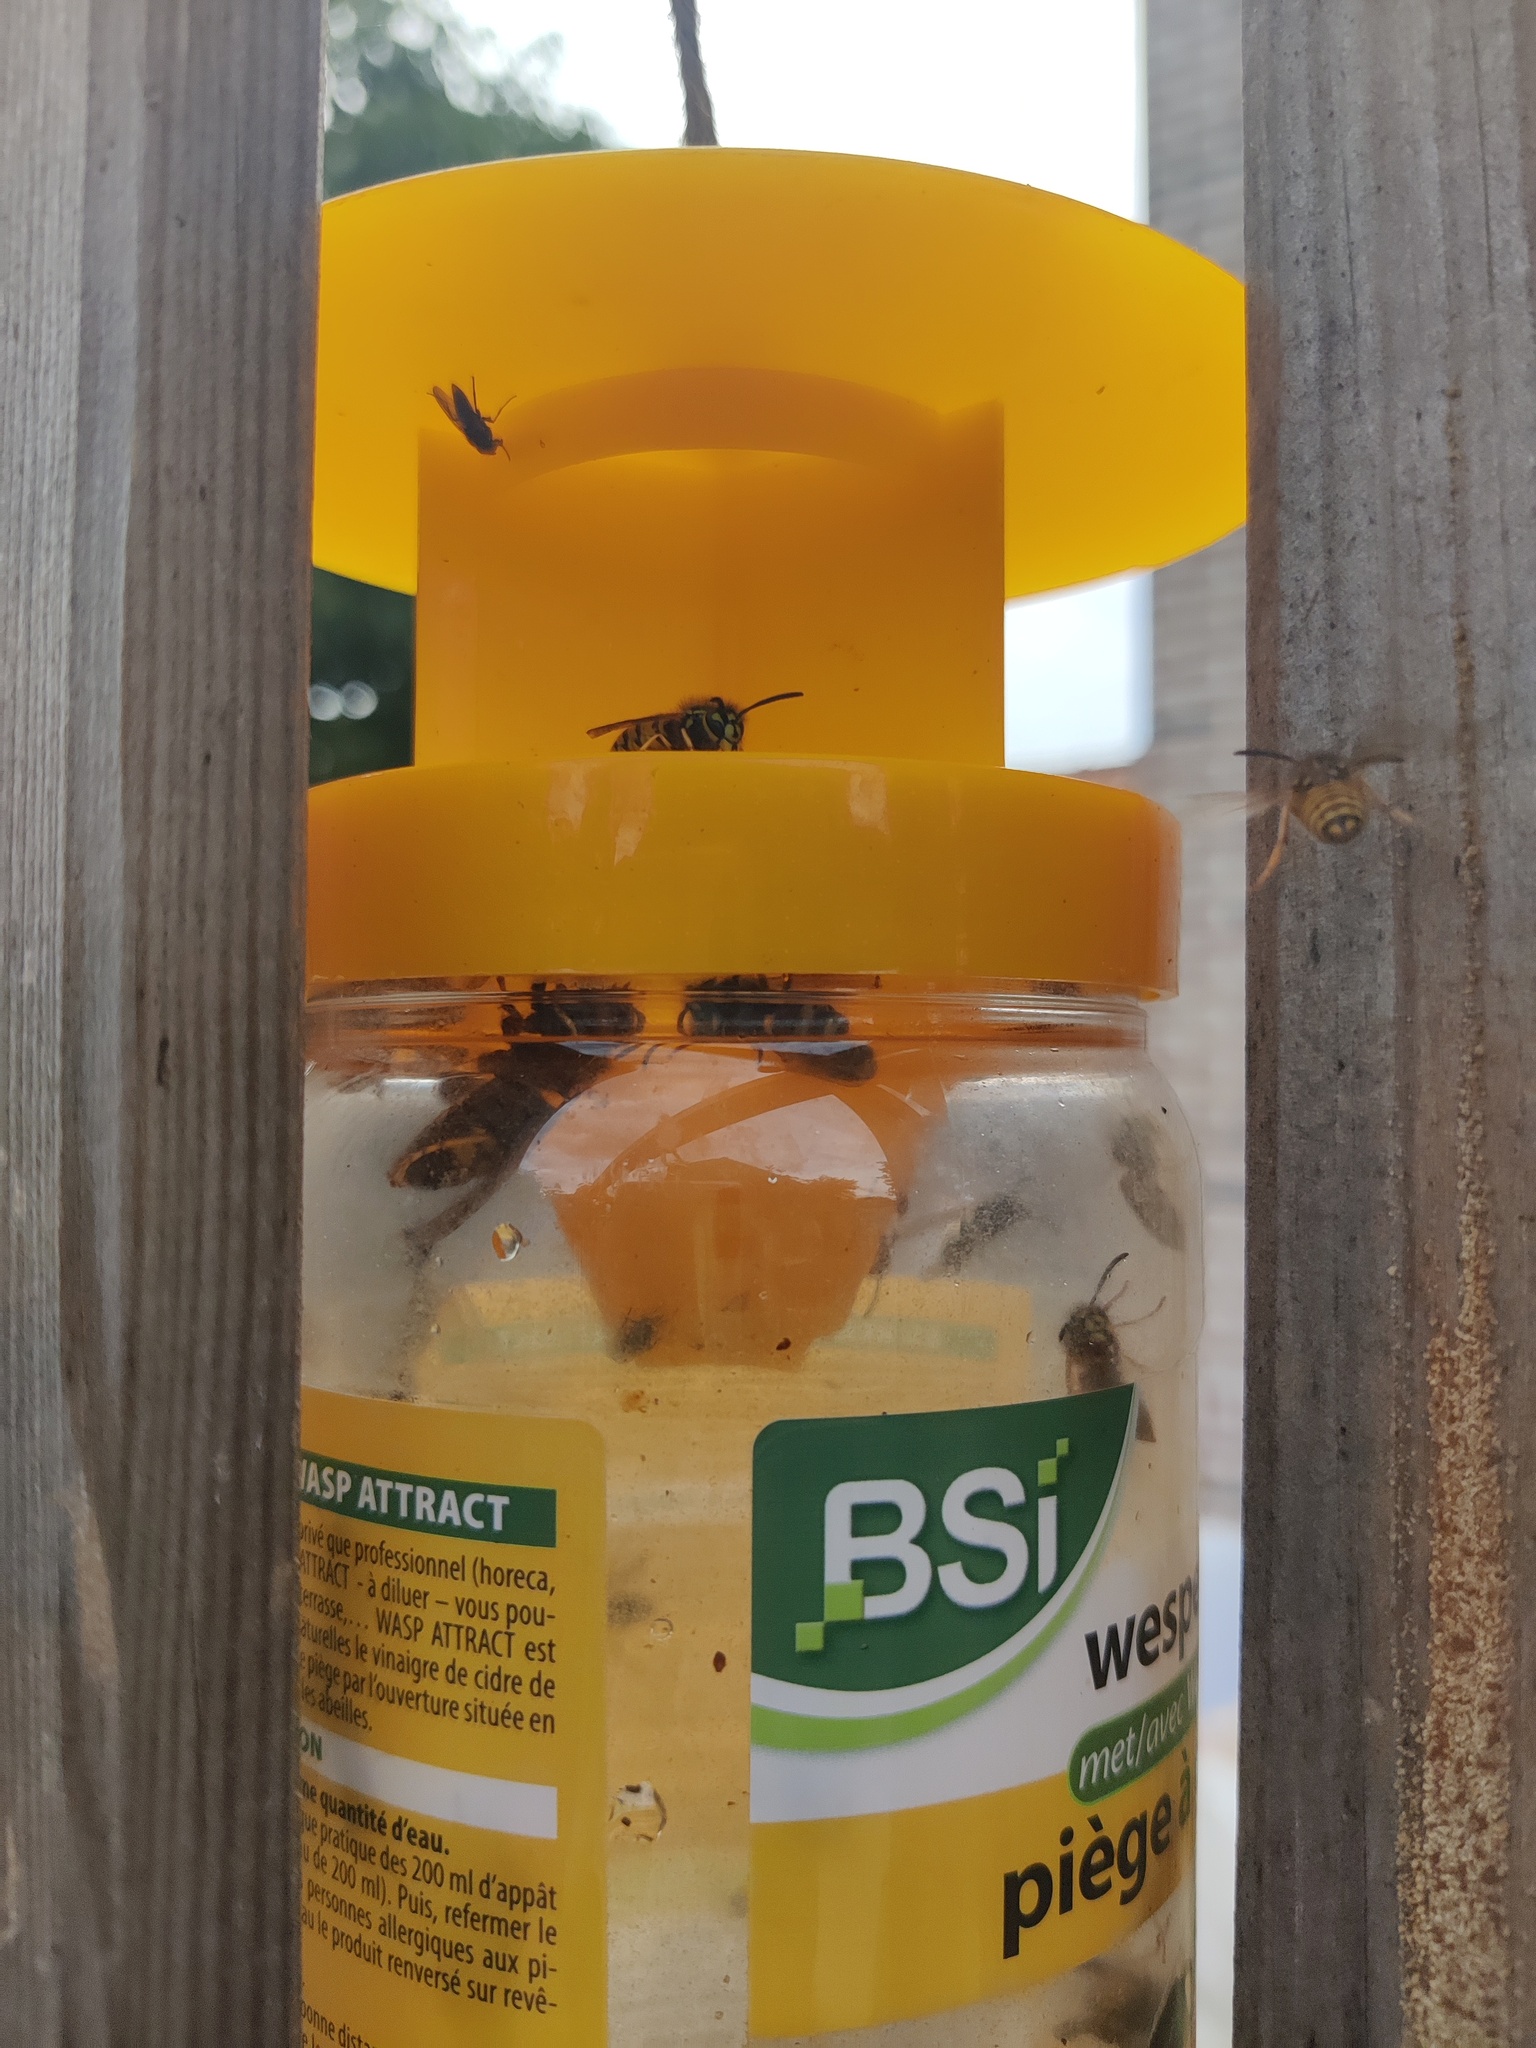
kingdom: Animalia
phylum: Arthropoda
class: Insecta
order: Hymenoptera
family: Vespidae
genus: Vespa
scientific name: Vespa velutina
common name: Asian hornet
